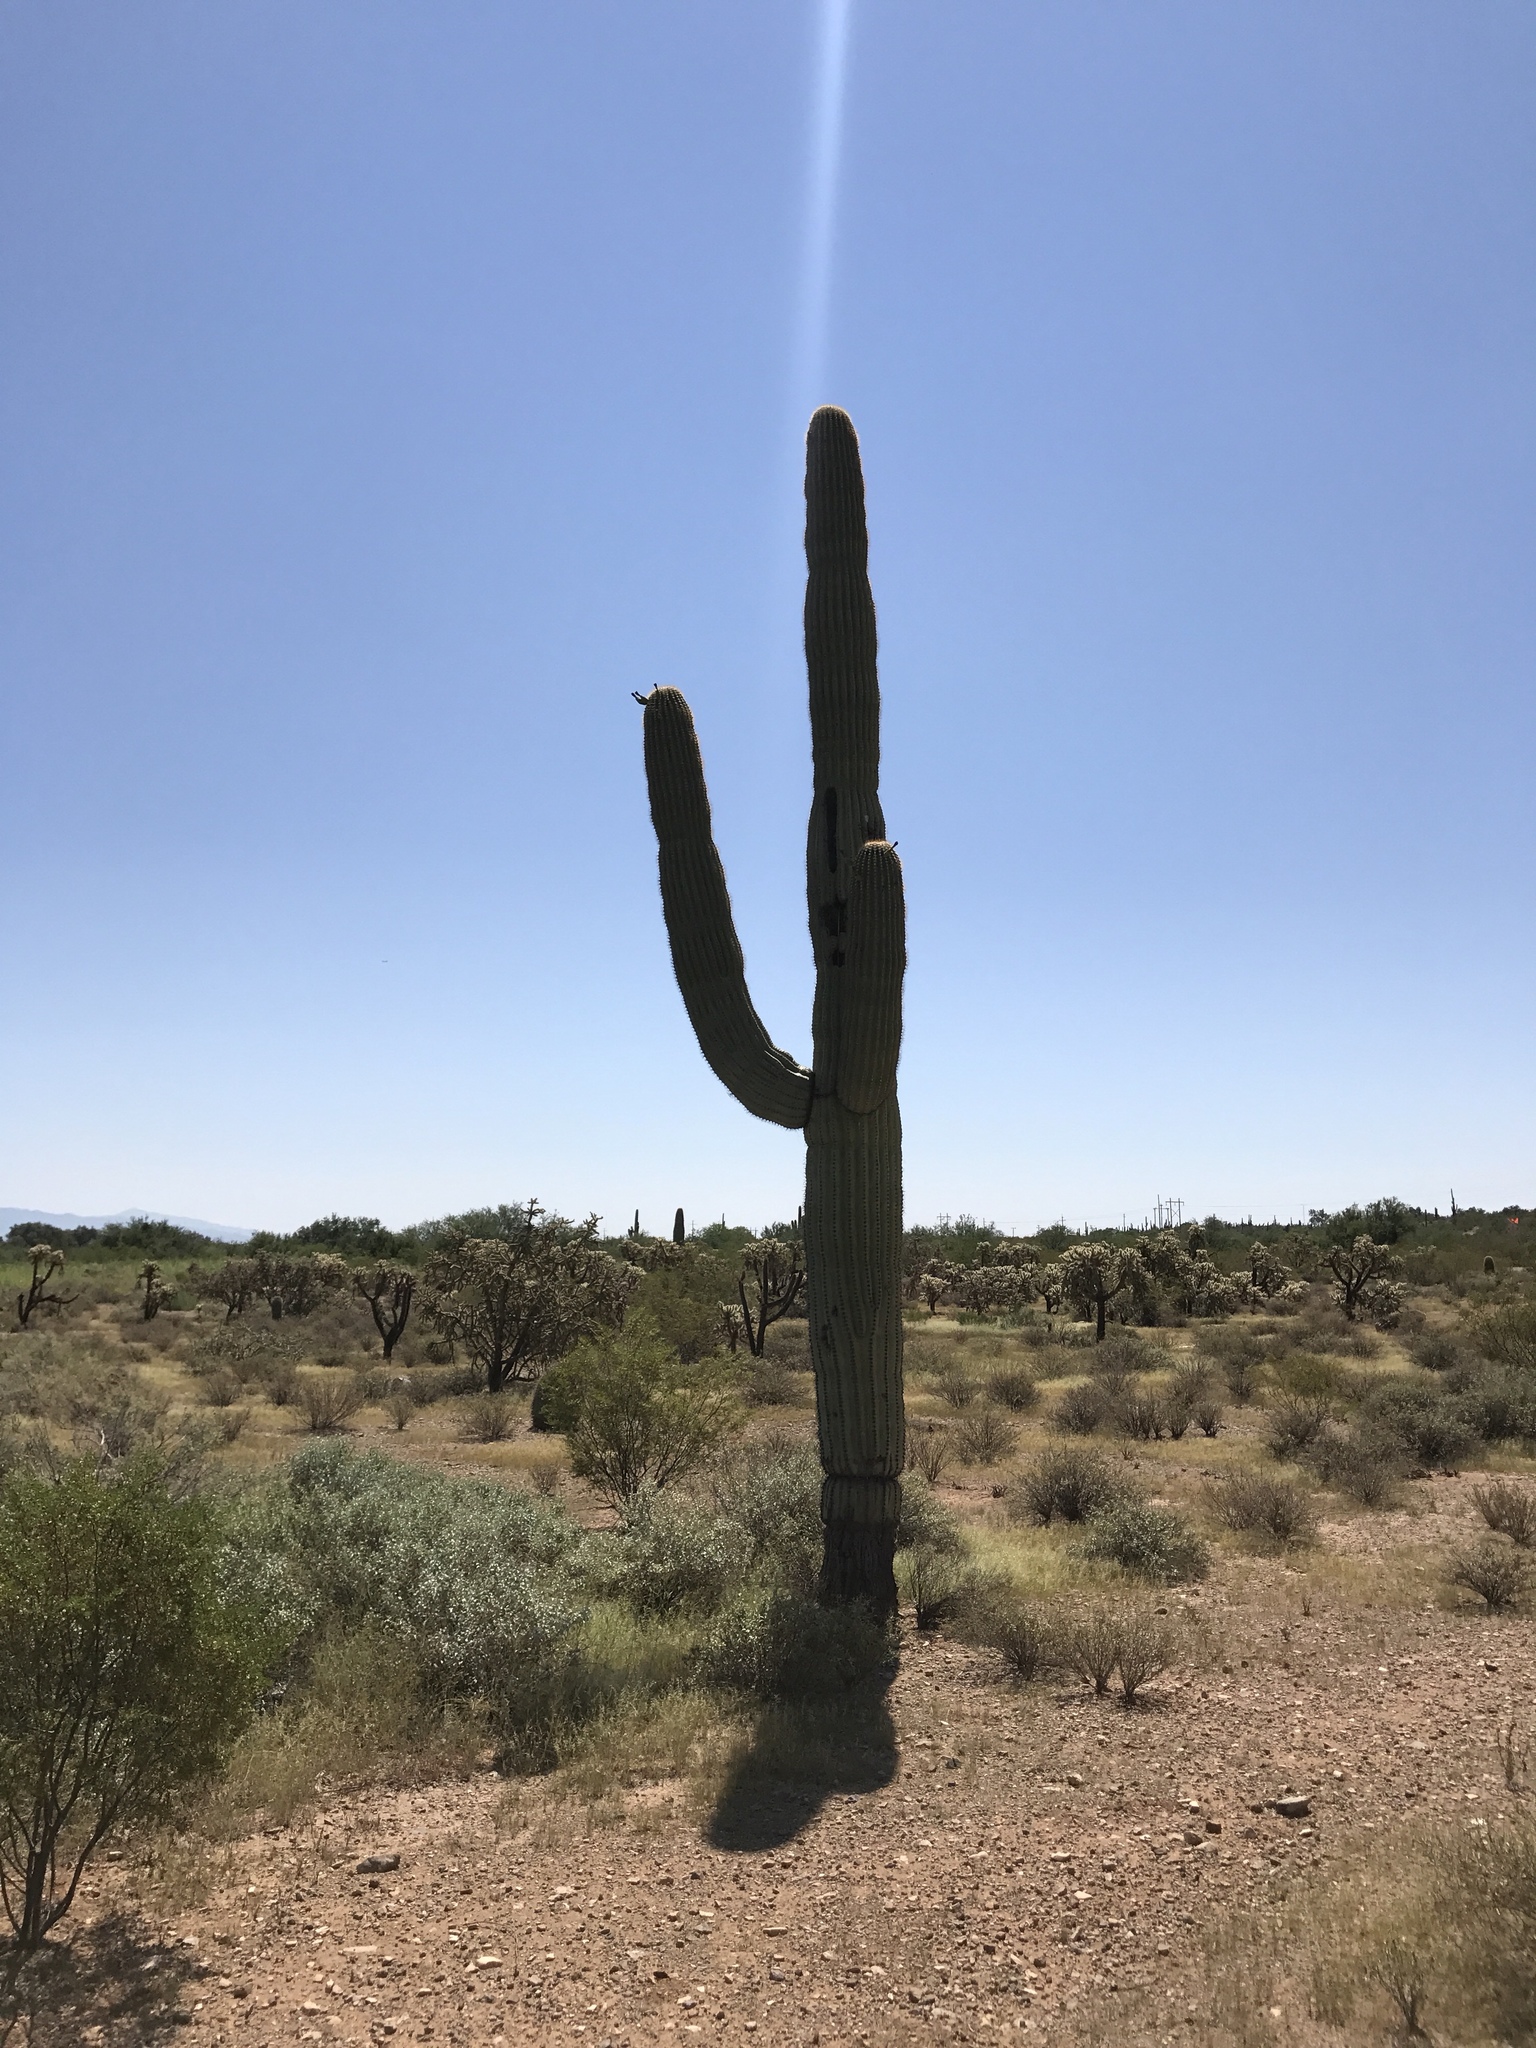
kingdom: Plantae
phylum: Tracheophyta
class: Magnoliopsida
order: Caryophyllales
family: Cactaceae
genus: Carnegiea
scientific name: Carnegiea gigantea
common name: Saguaro
